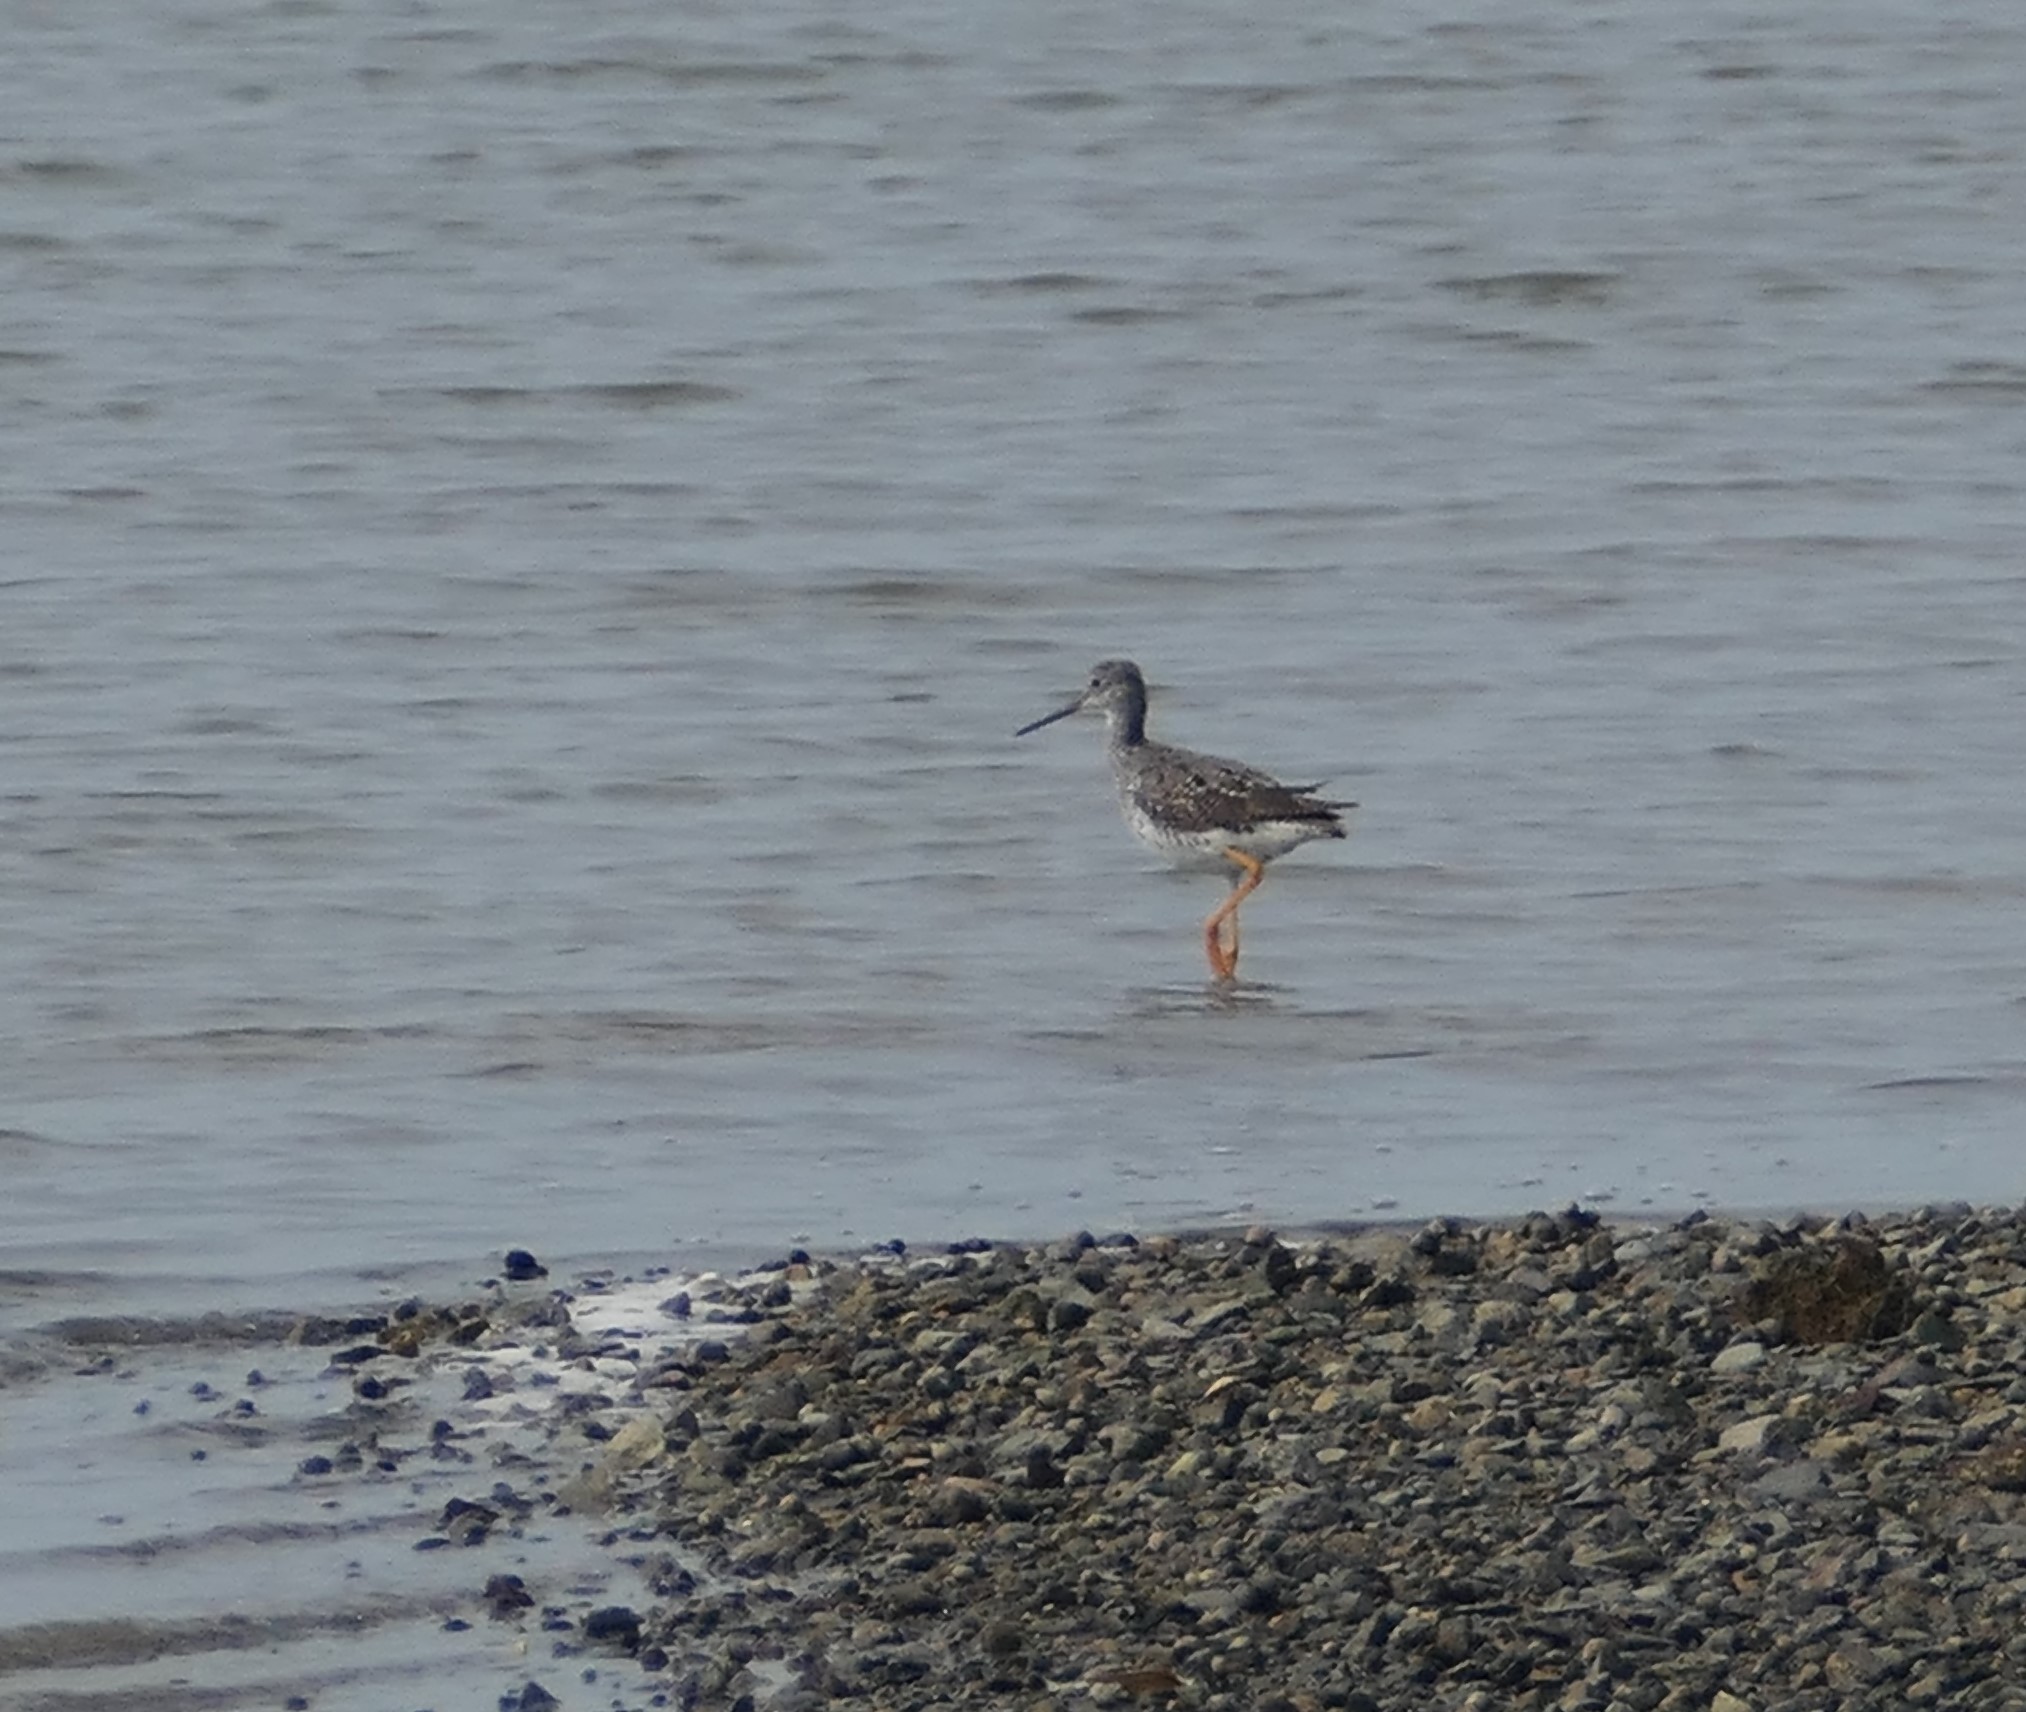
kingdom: Animalia
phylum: Chordata
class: Aves
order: Charadriiformes
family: Scolopacidae
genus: Tringa
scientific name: Tringa melanoleuca
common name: Greater yellowlegs
